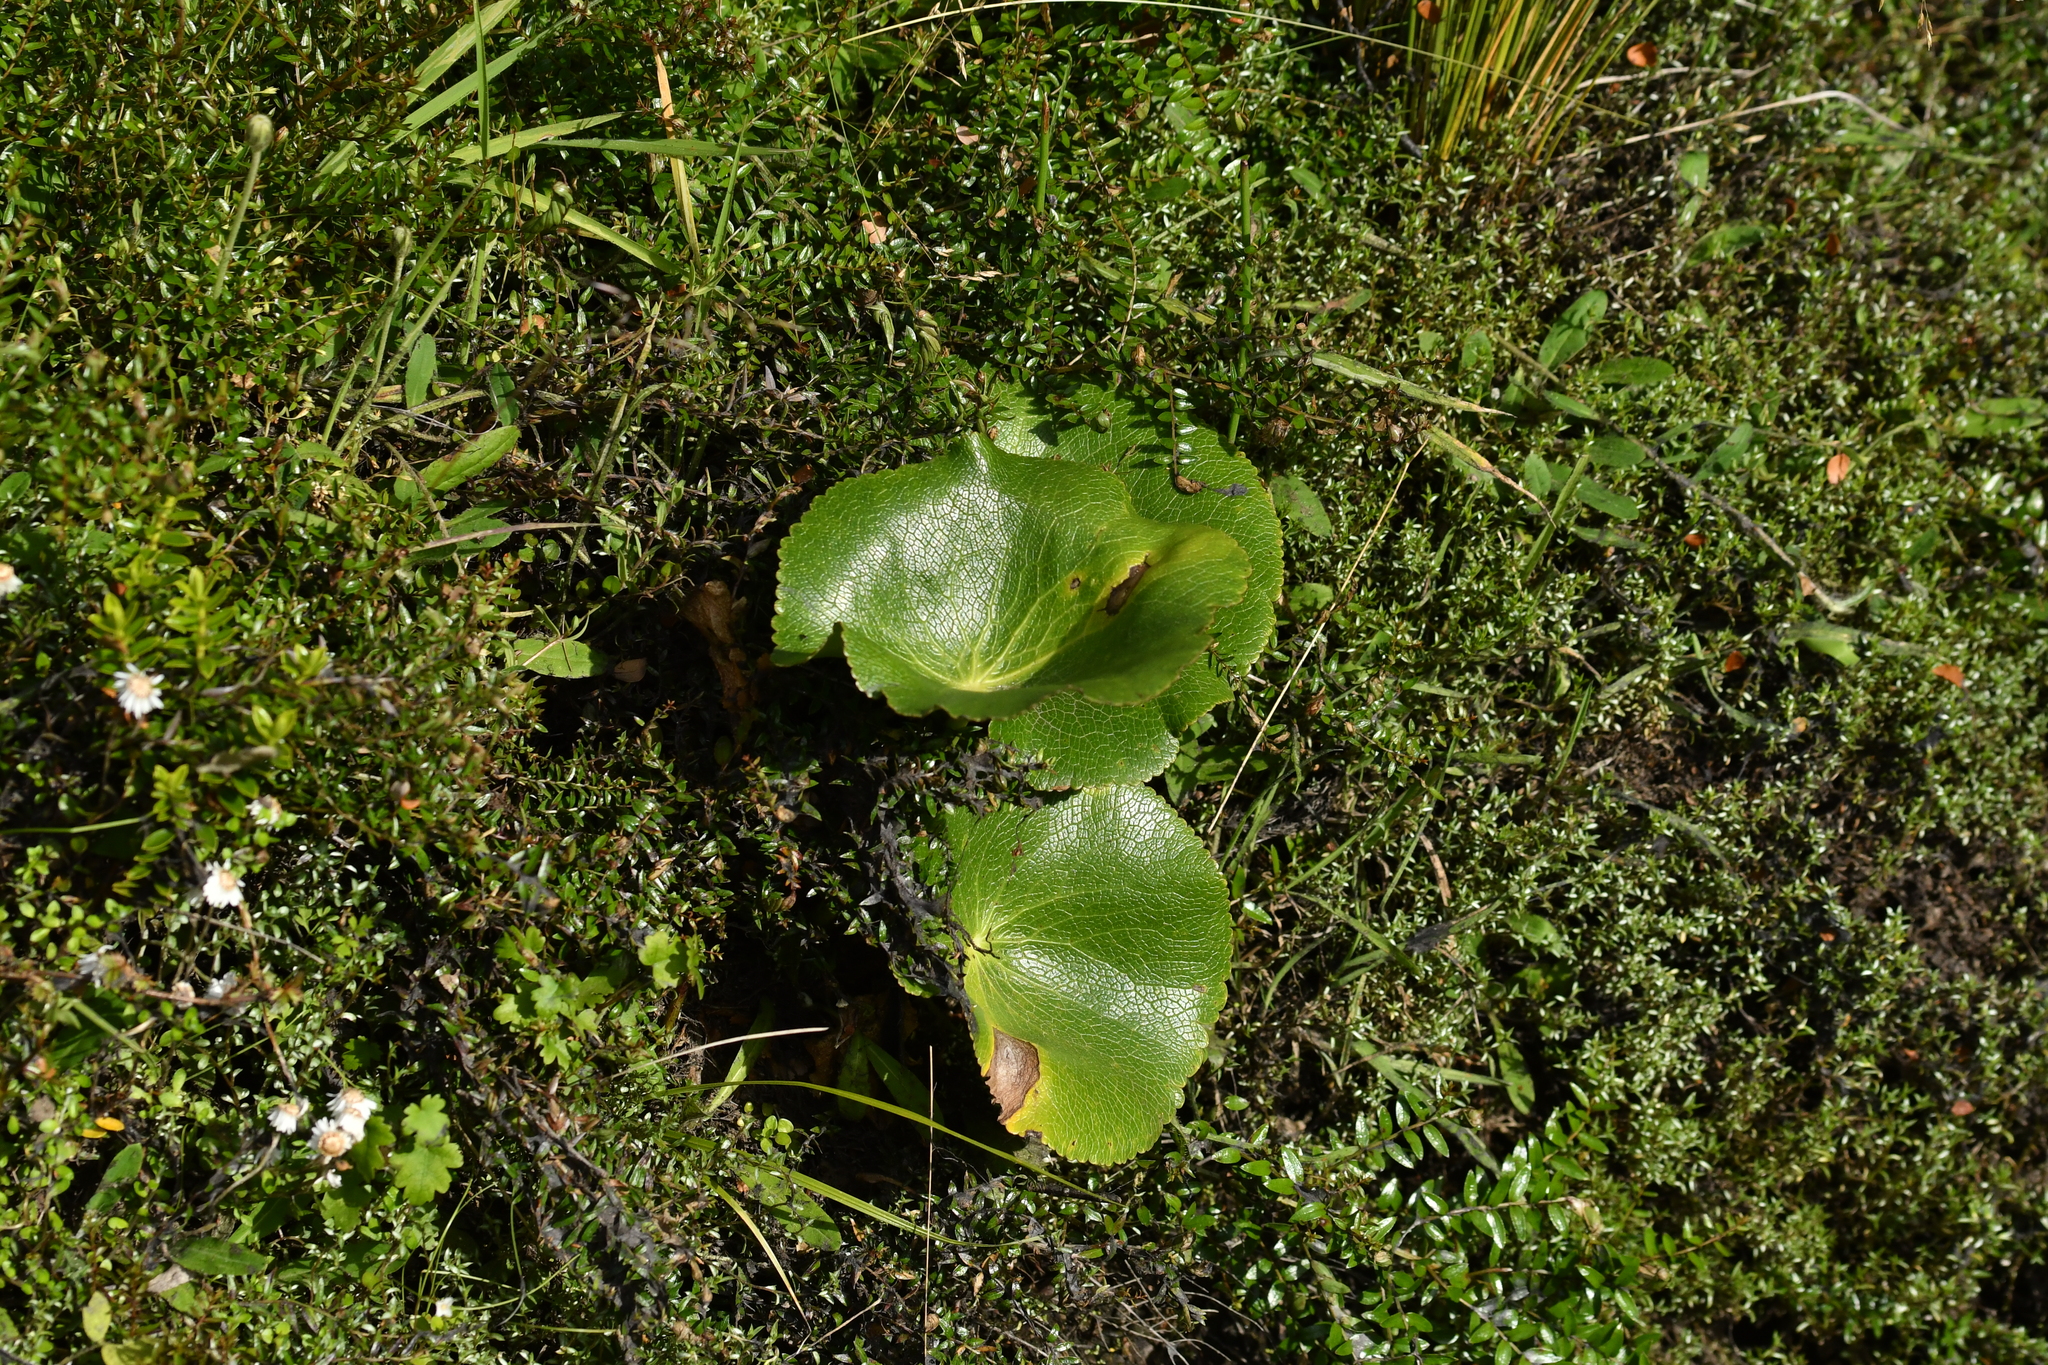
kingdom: Plantae
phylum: Tracheophyta
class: Magnoliopsida
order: Ranunculales
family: Ranunculaceae
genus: Ranunculus
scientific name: Ranunculus lyallii
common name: Mountain-lily
